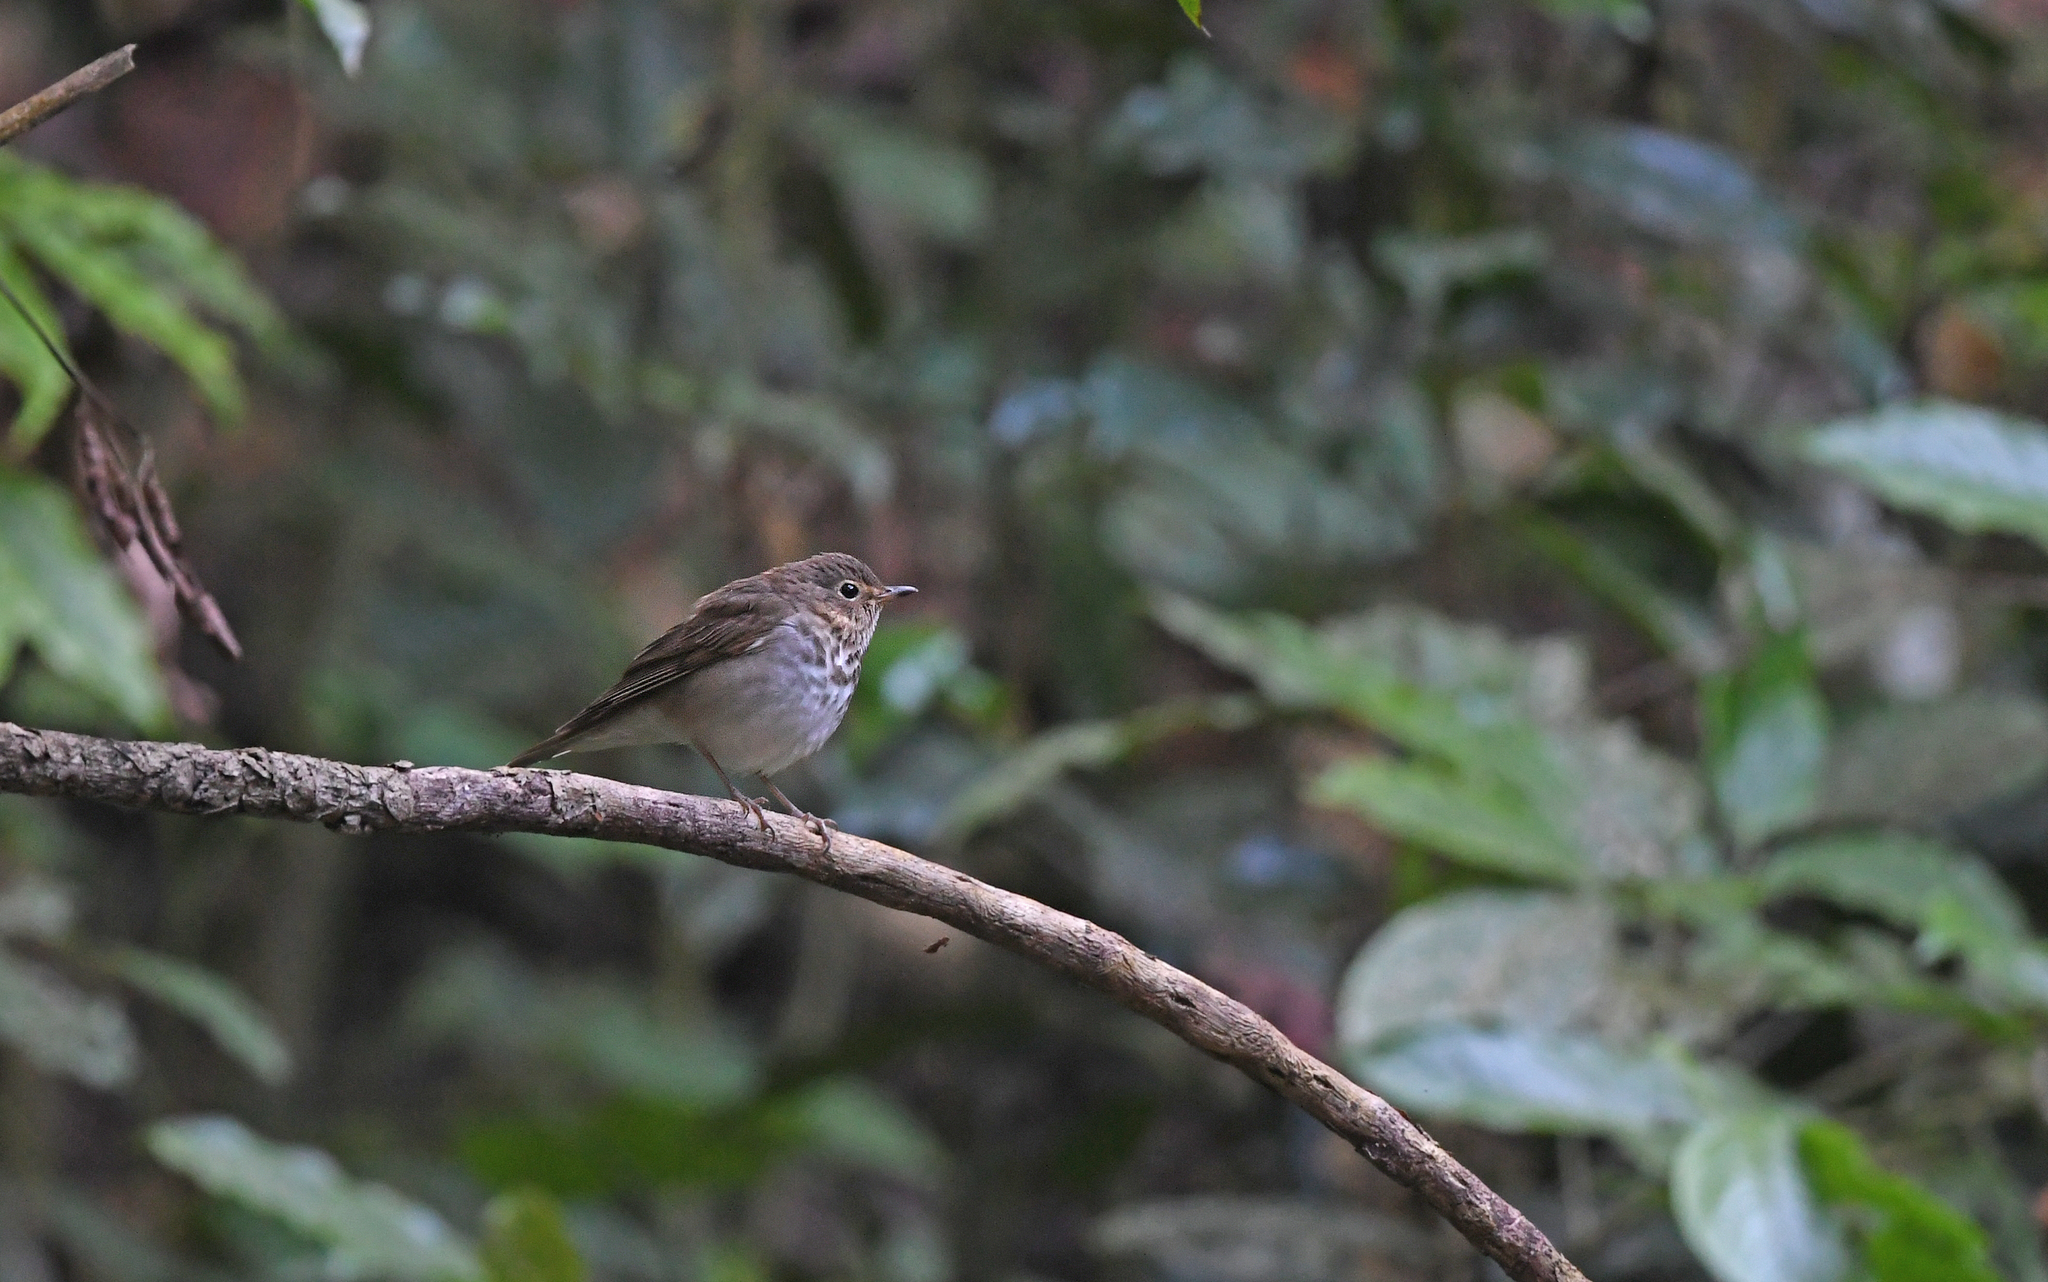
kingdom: Animalia
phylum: Chordata
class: Aves
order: Passeriformes
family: Turdidae
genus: Catharus
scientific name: Catharus ustulatus
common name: Swainson's thrush
